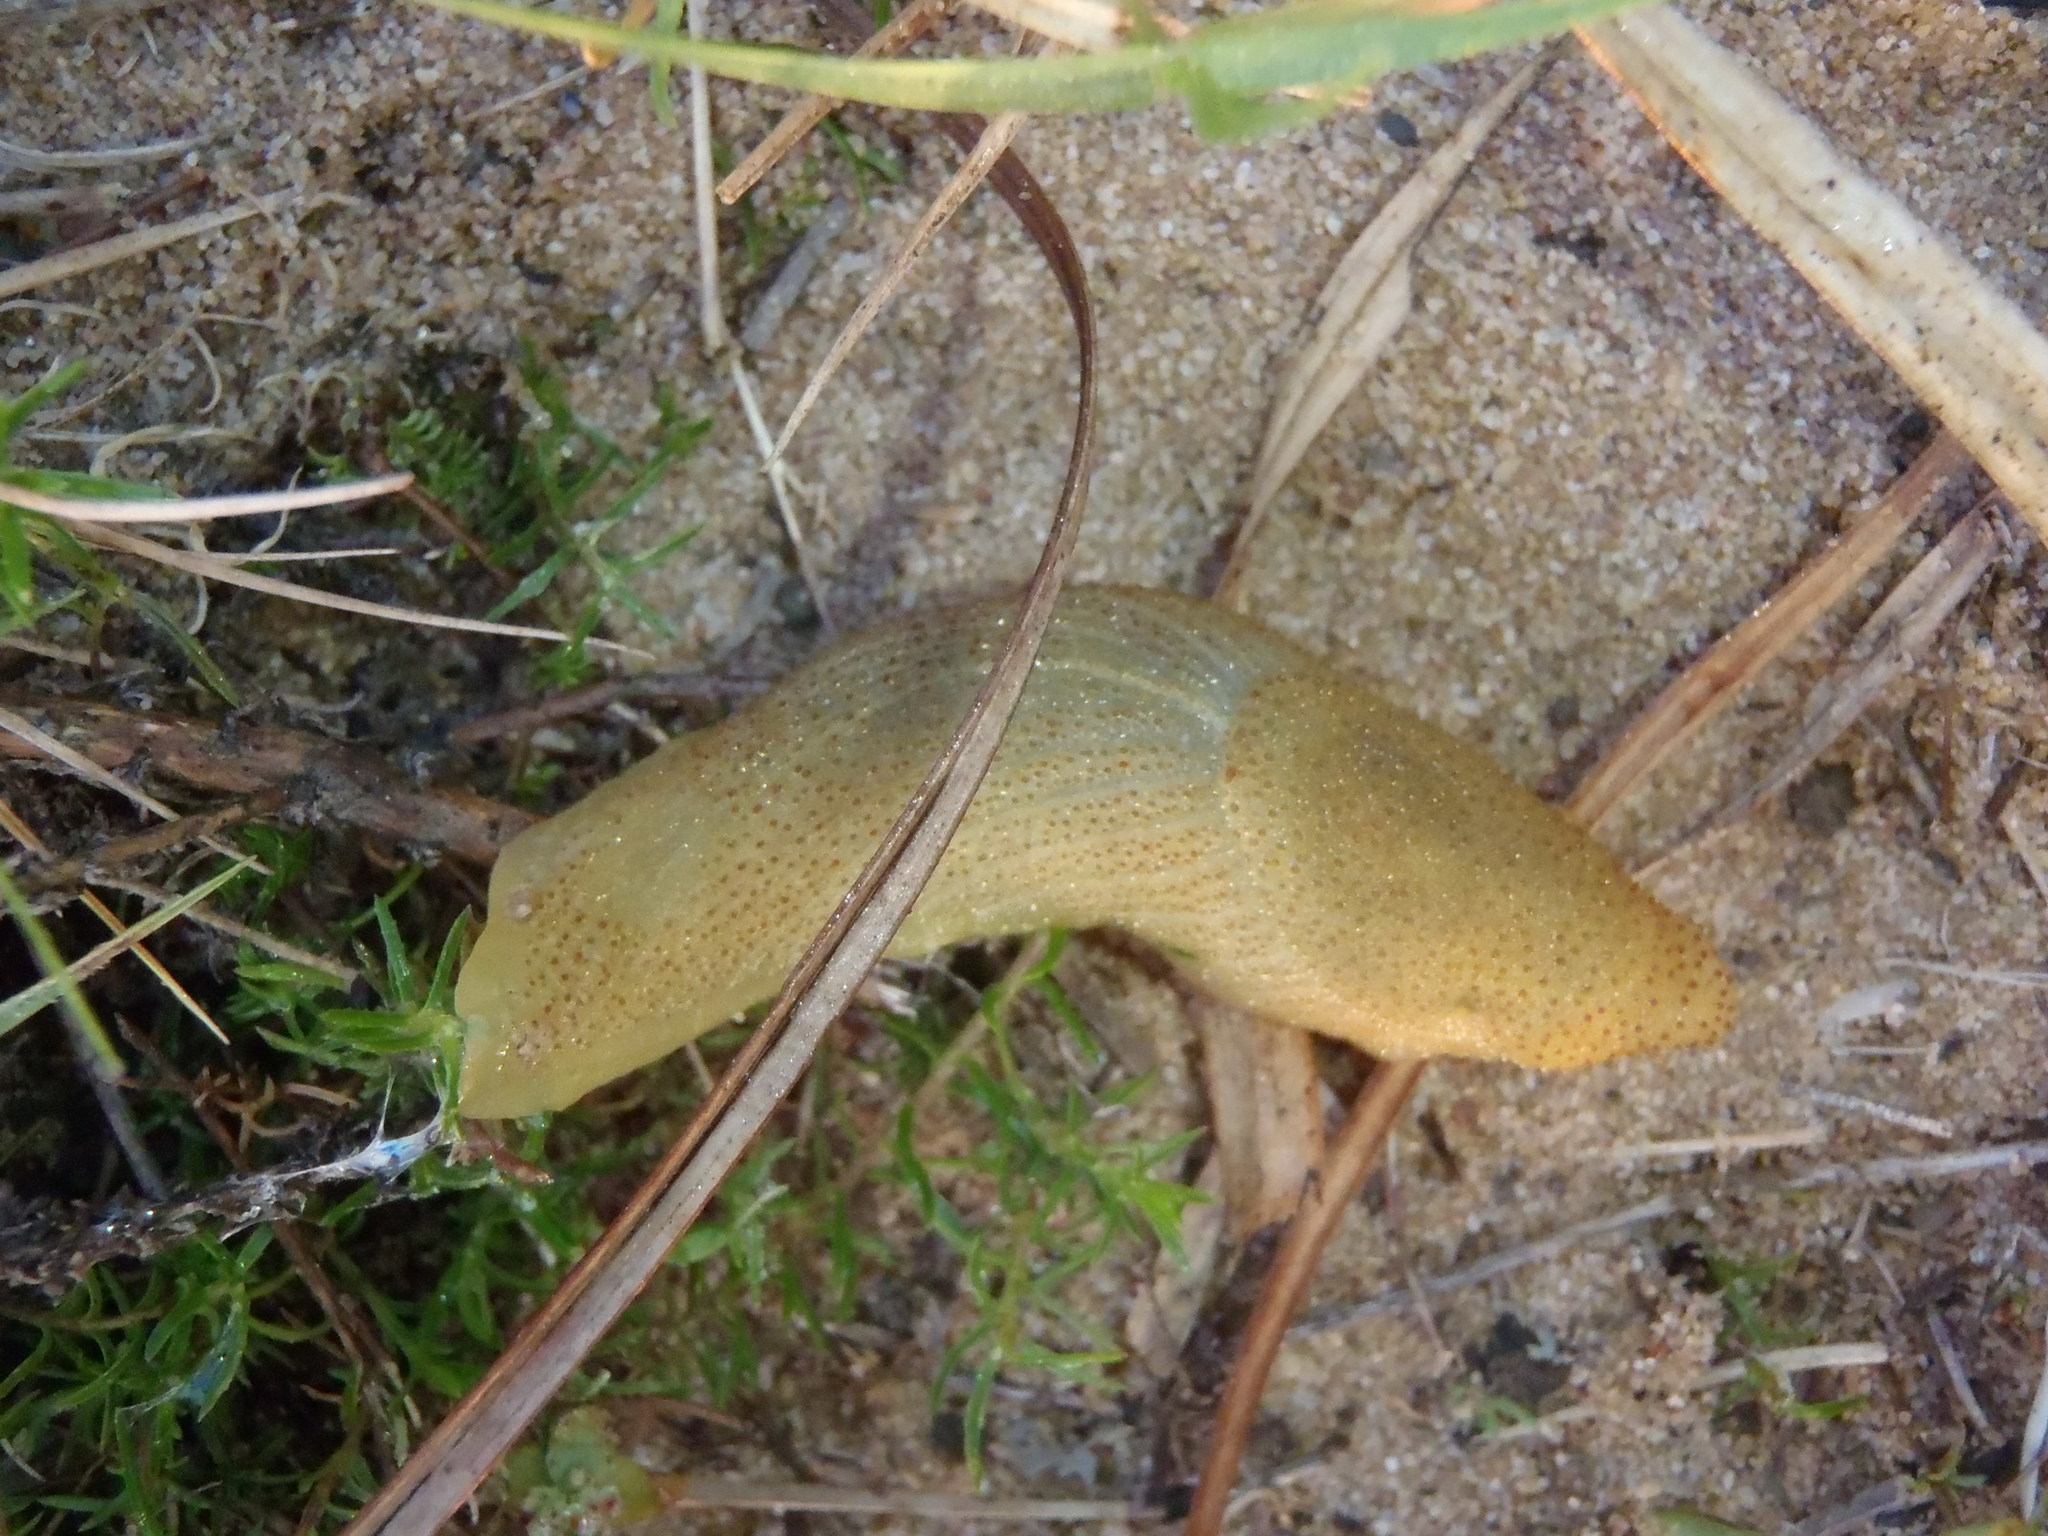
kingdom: Animalia
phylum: Mollusca
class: Gastropoda
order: Stylommatophora
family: Oopeltidae
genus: Oopelta
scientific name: Oopelta capensis
